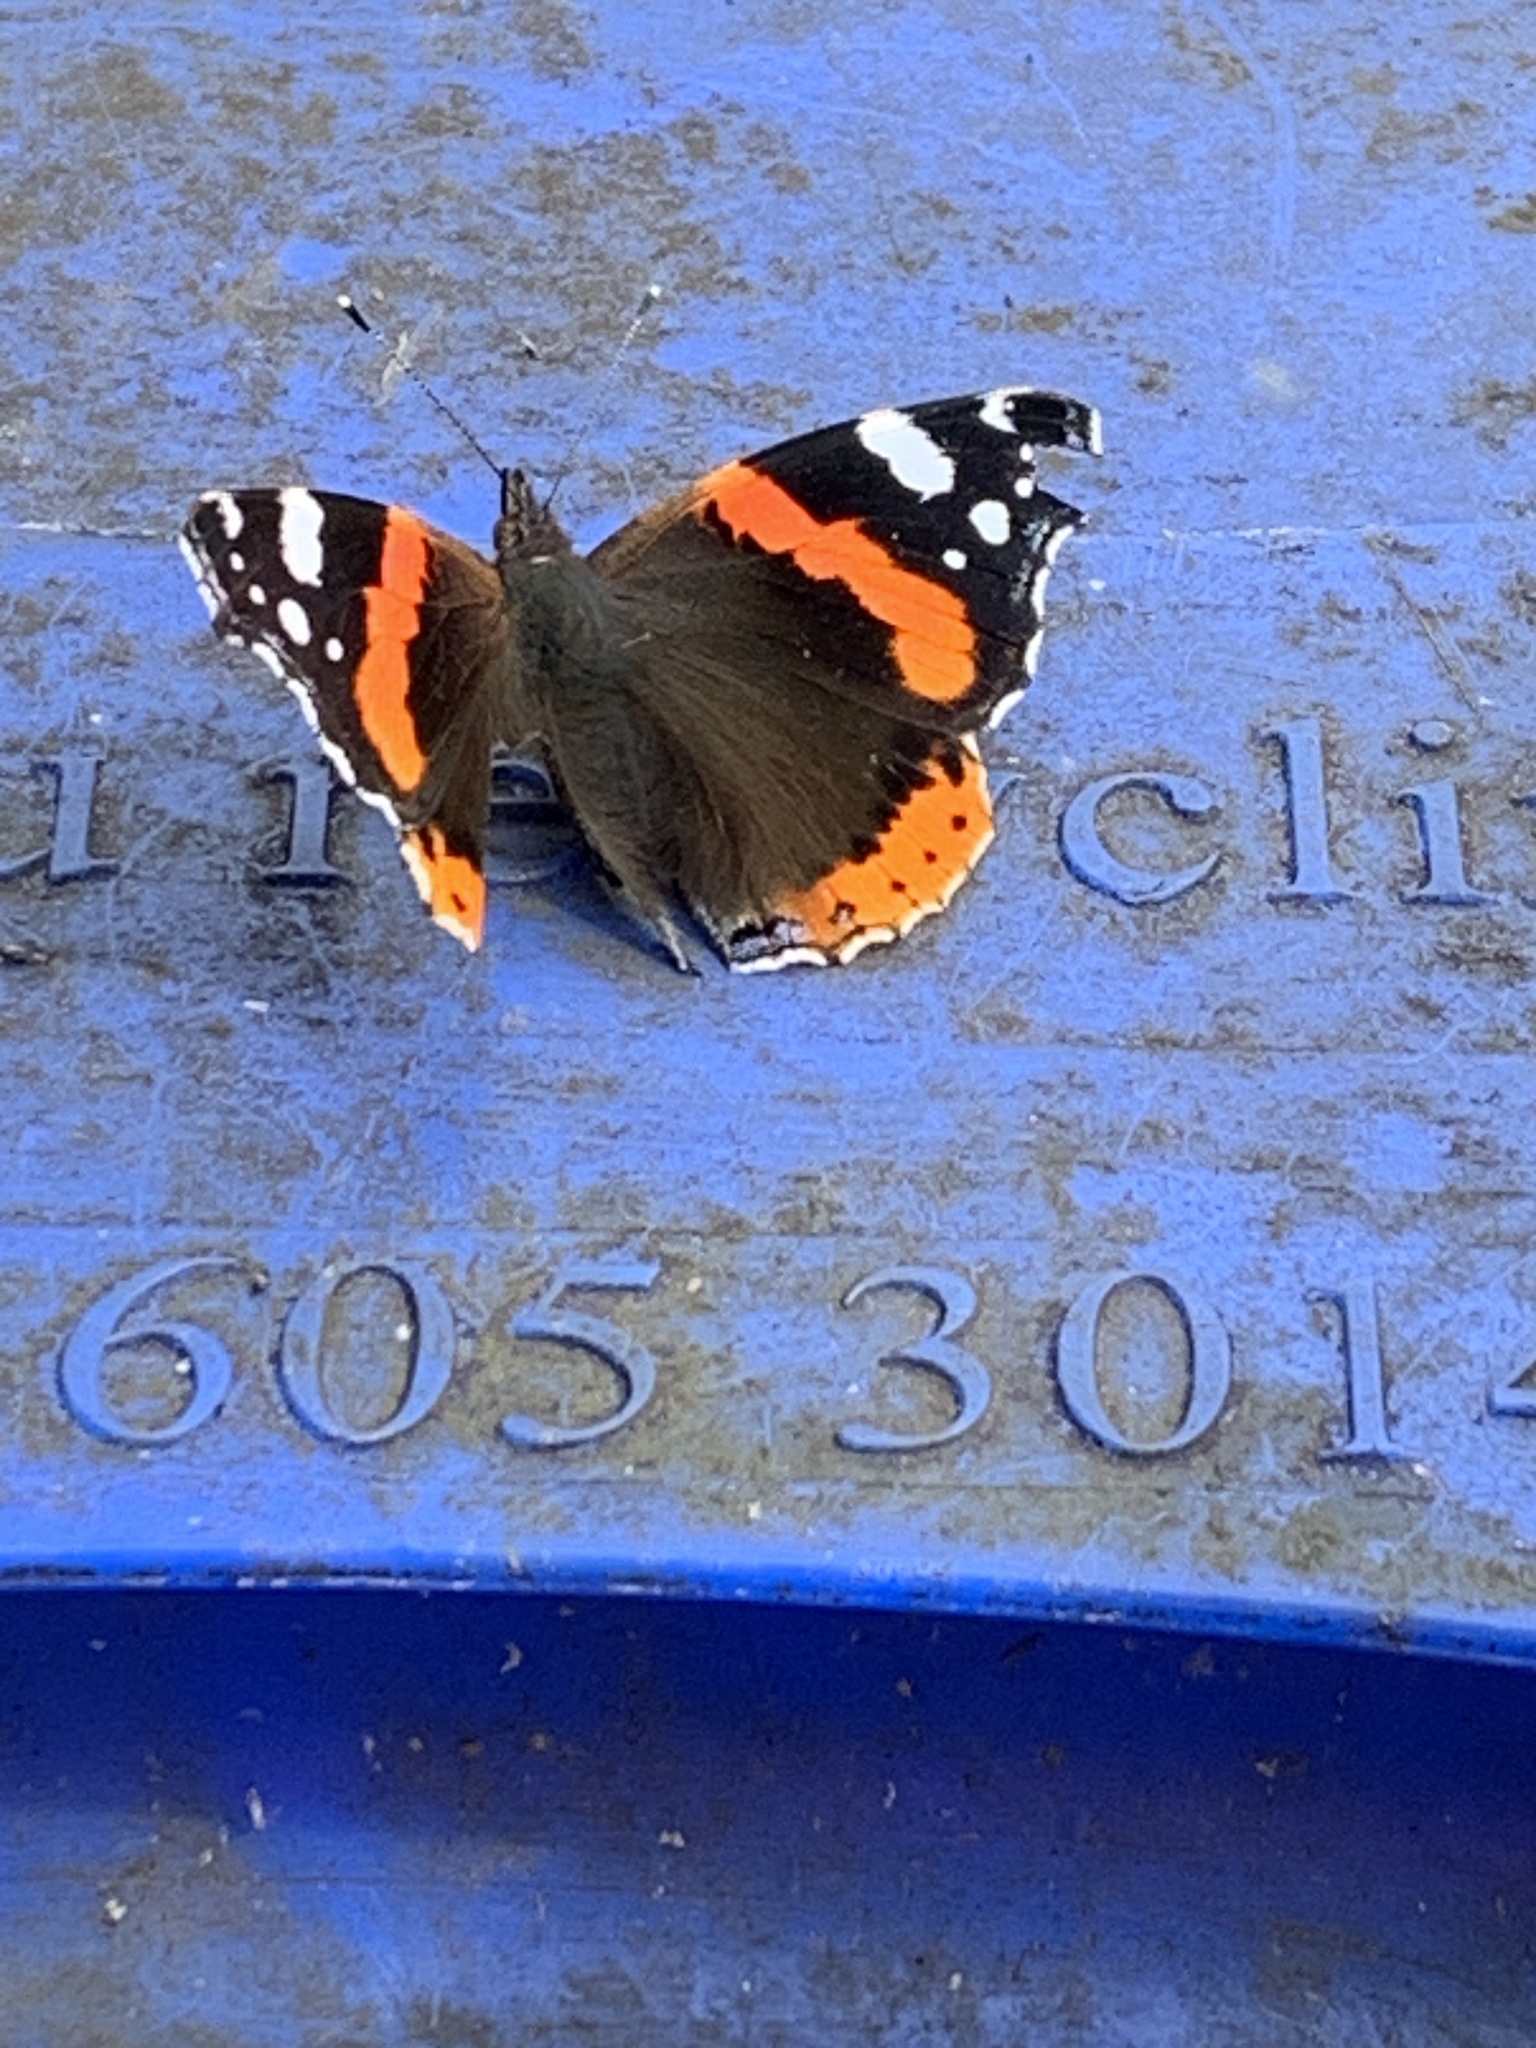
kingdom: Animalia
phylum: Arthropoda
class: Insecta
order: Lepidoptera
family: Nymphalidae
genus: Vanessa
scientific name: Vanessa atalanta
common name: Red admiral
